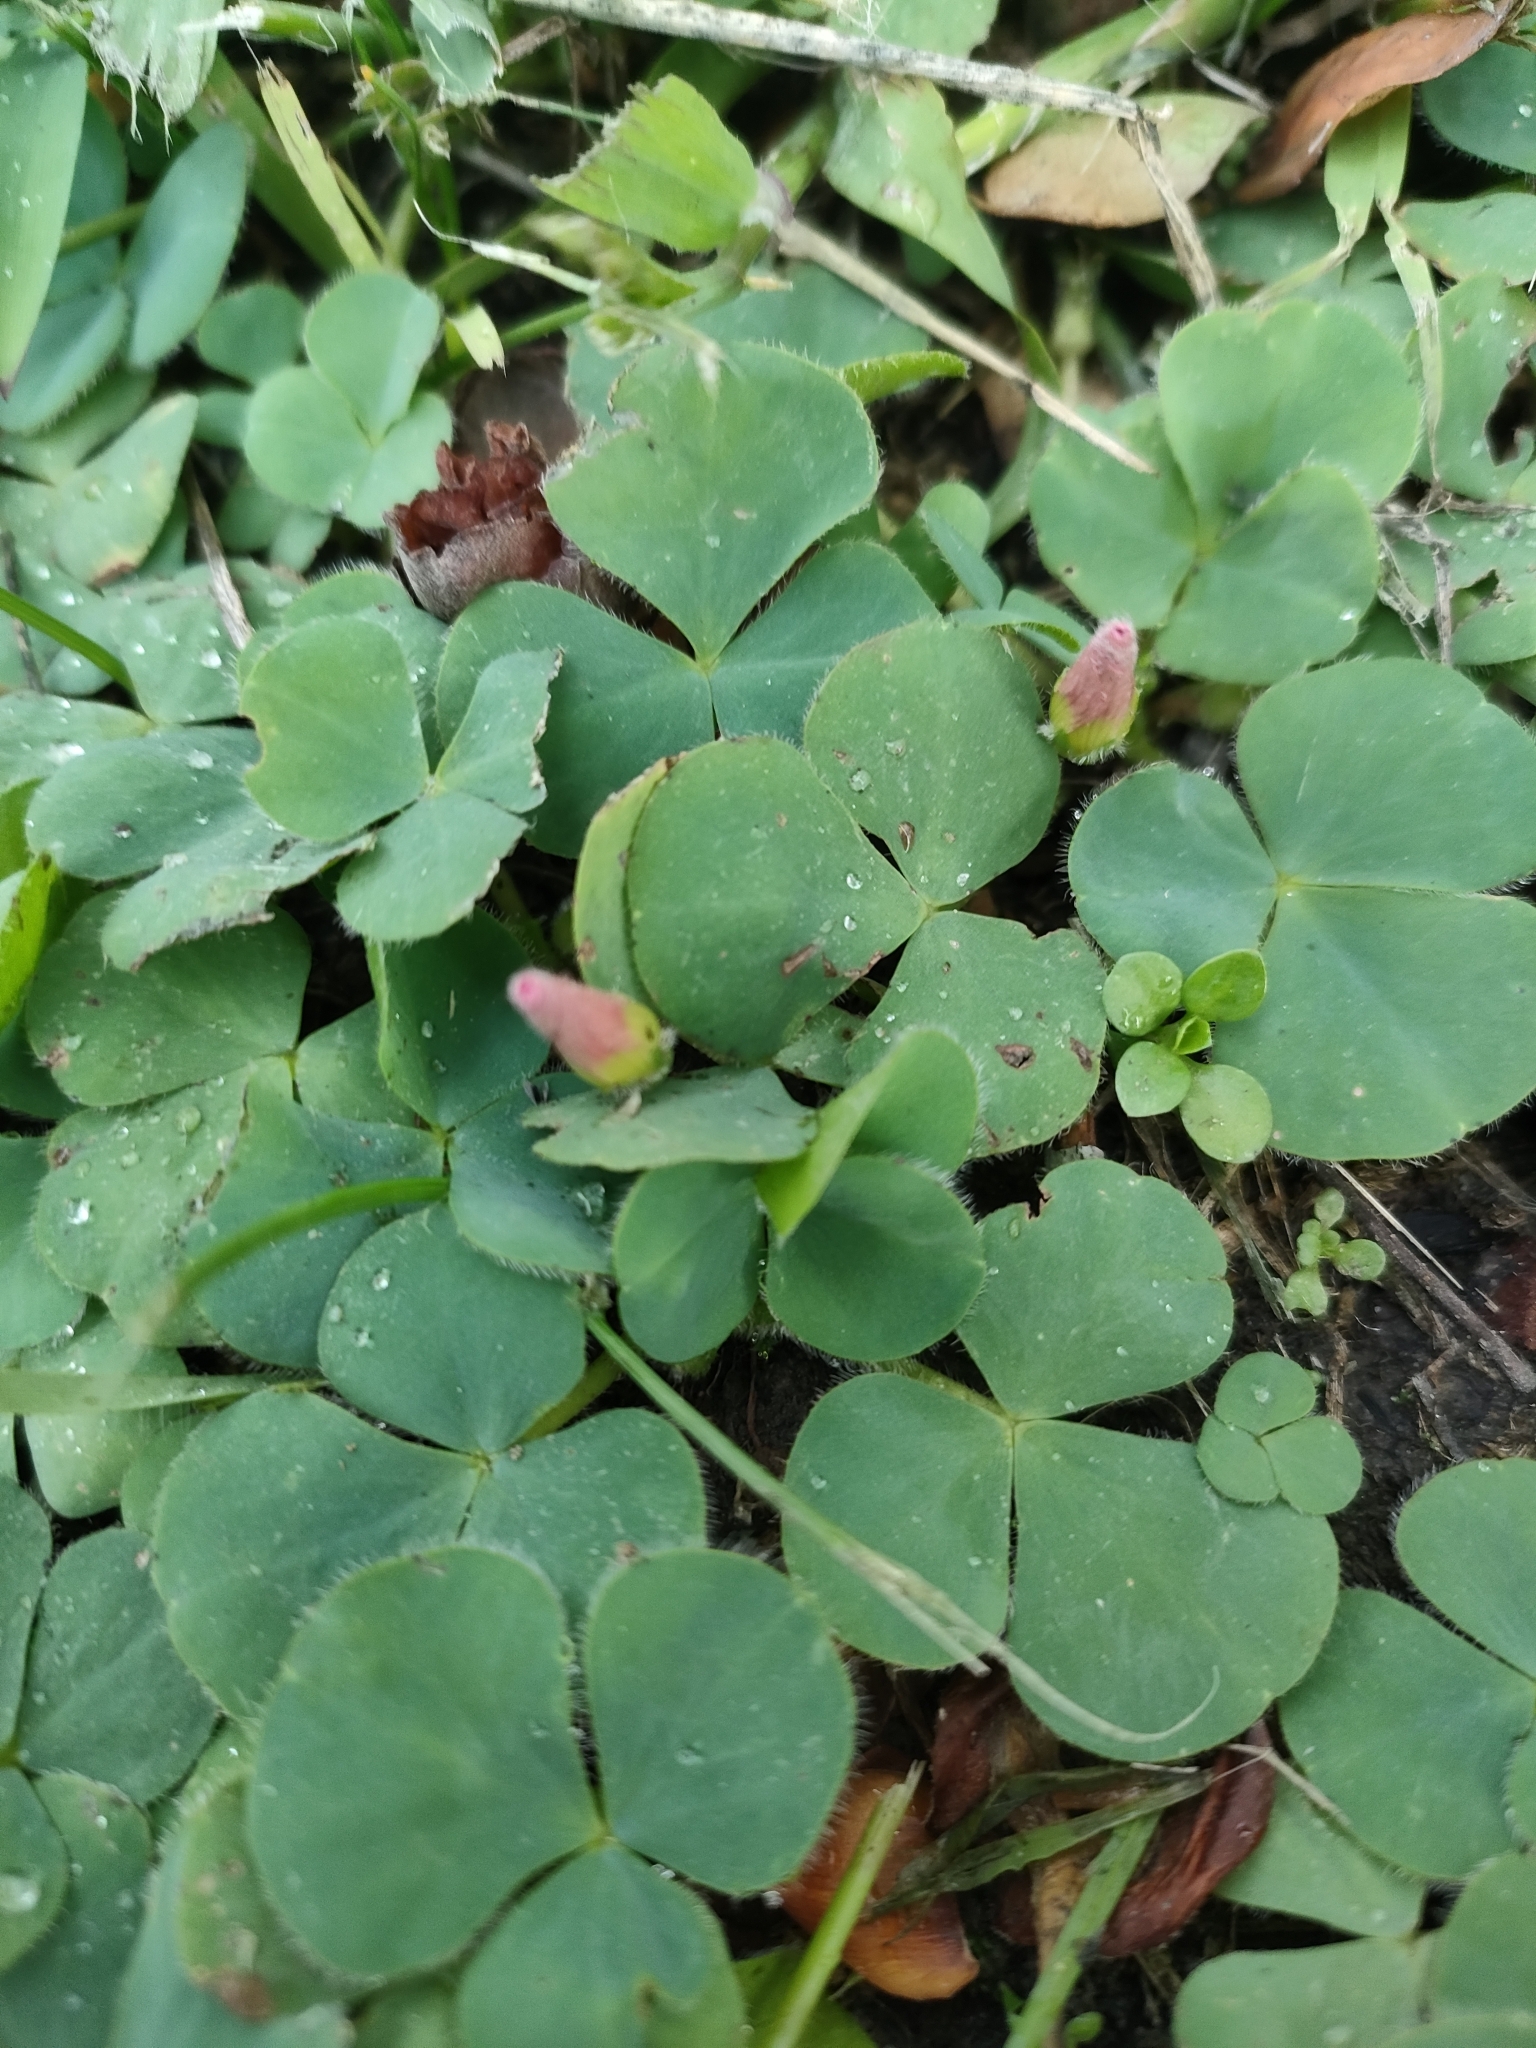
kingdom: Plantae
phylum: Tracheophyta
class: Magnoliopsida
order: Oxalidales
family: Oxalidaceae
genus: Oxalis
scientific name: Oxalis purpurea
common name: Purple woodsorrel
